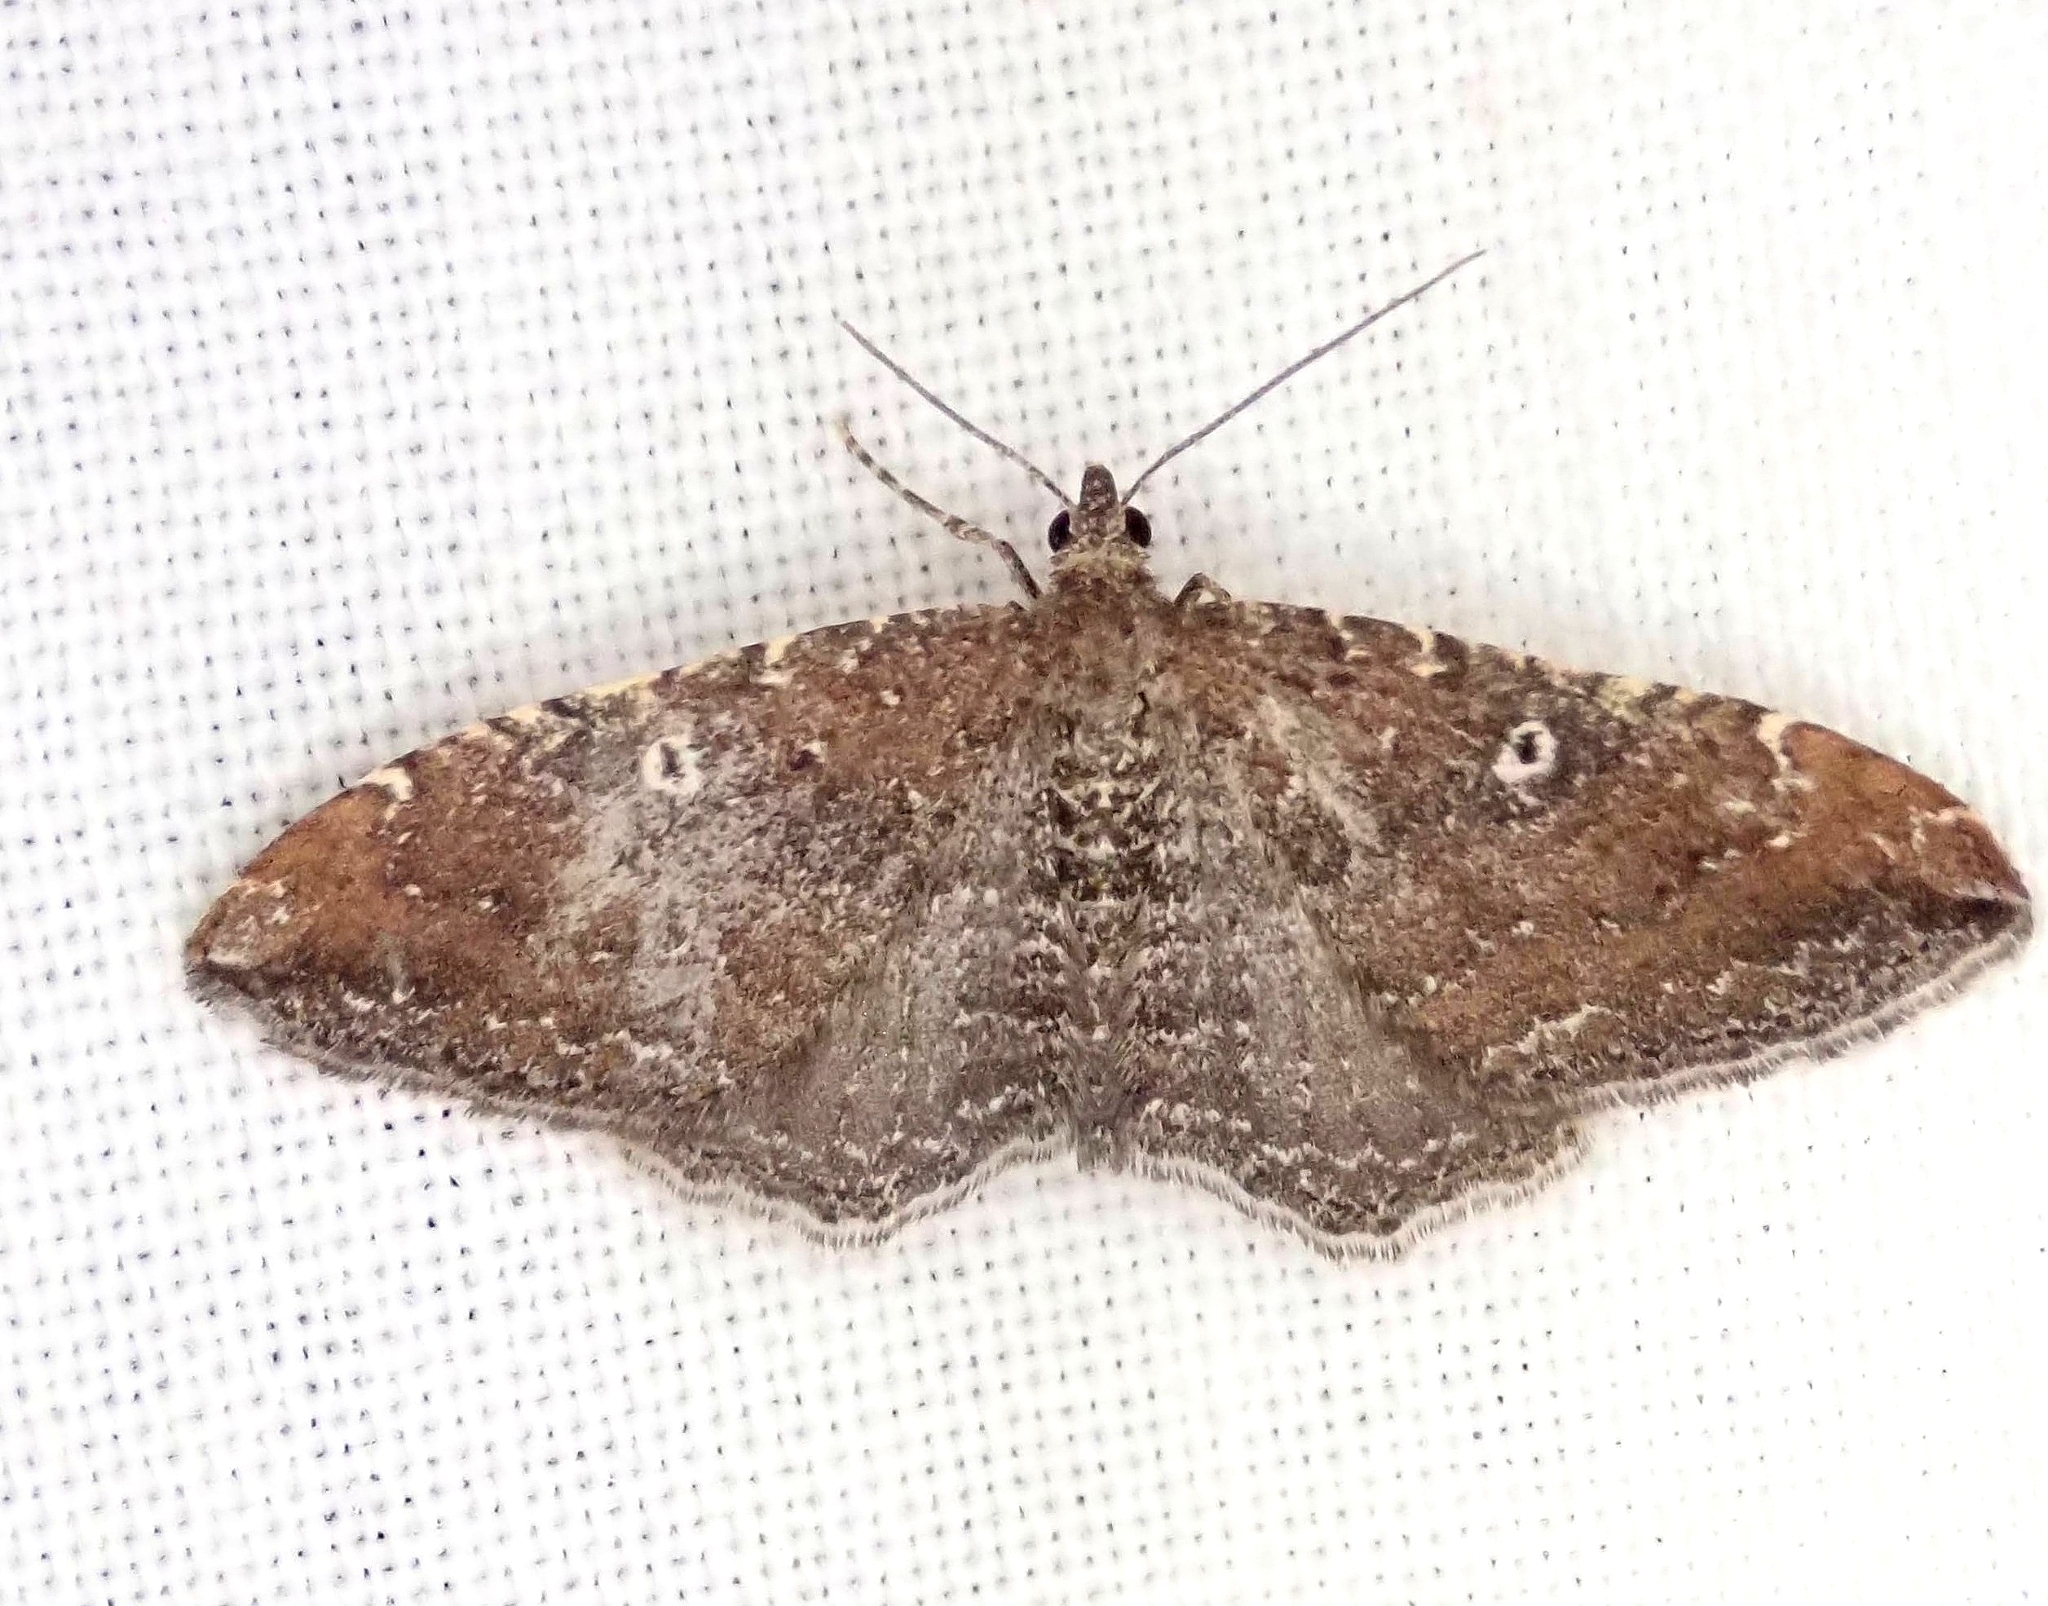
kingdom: Animalia
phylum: Arthropoda
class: Insecta
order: Lepidoptera
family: Geometridae
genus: Orthonama
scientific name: Orthonama obstipata
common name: The gem
